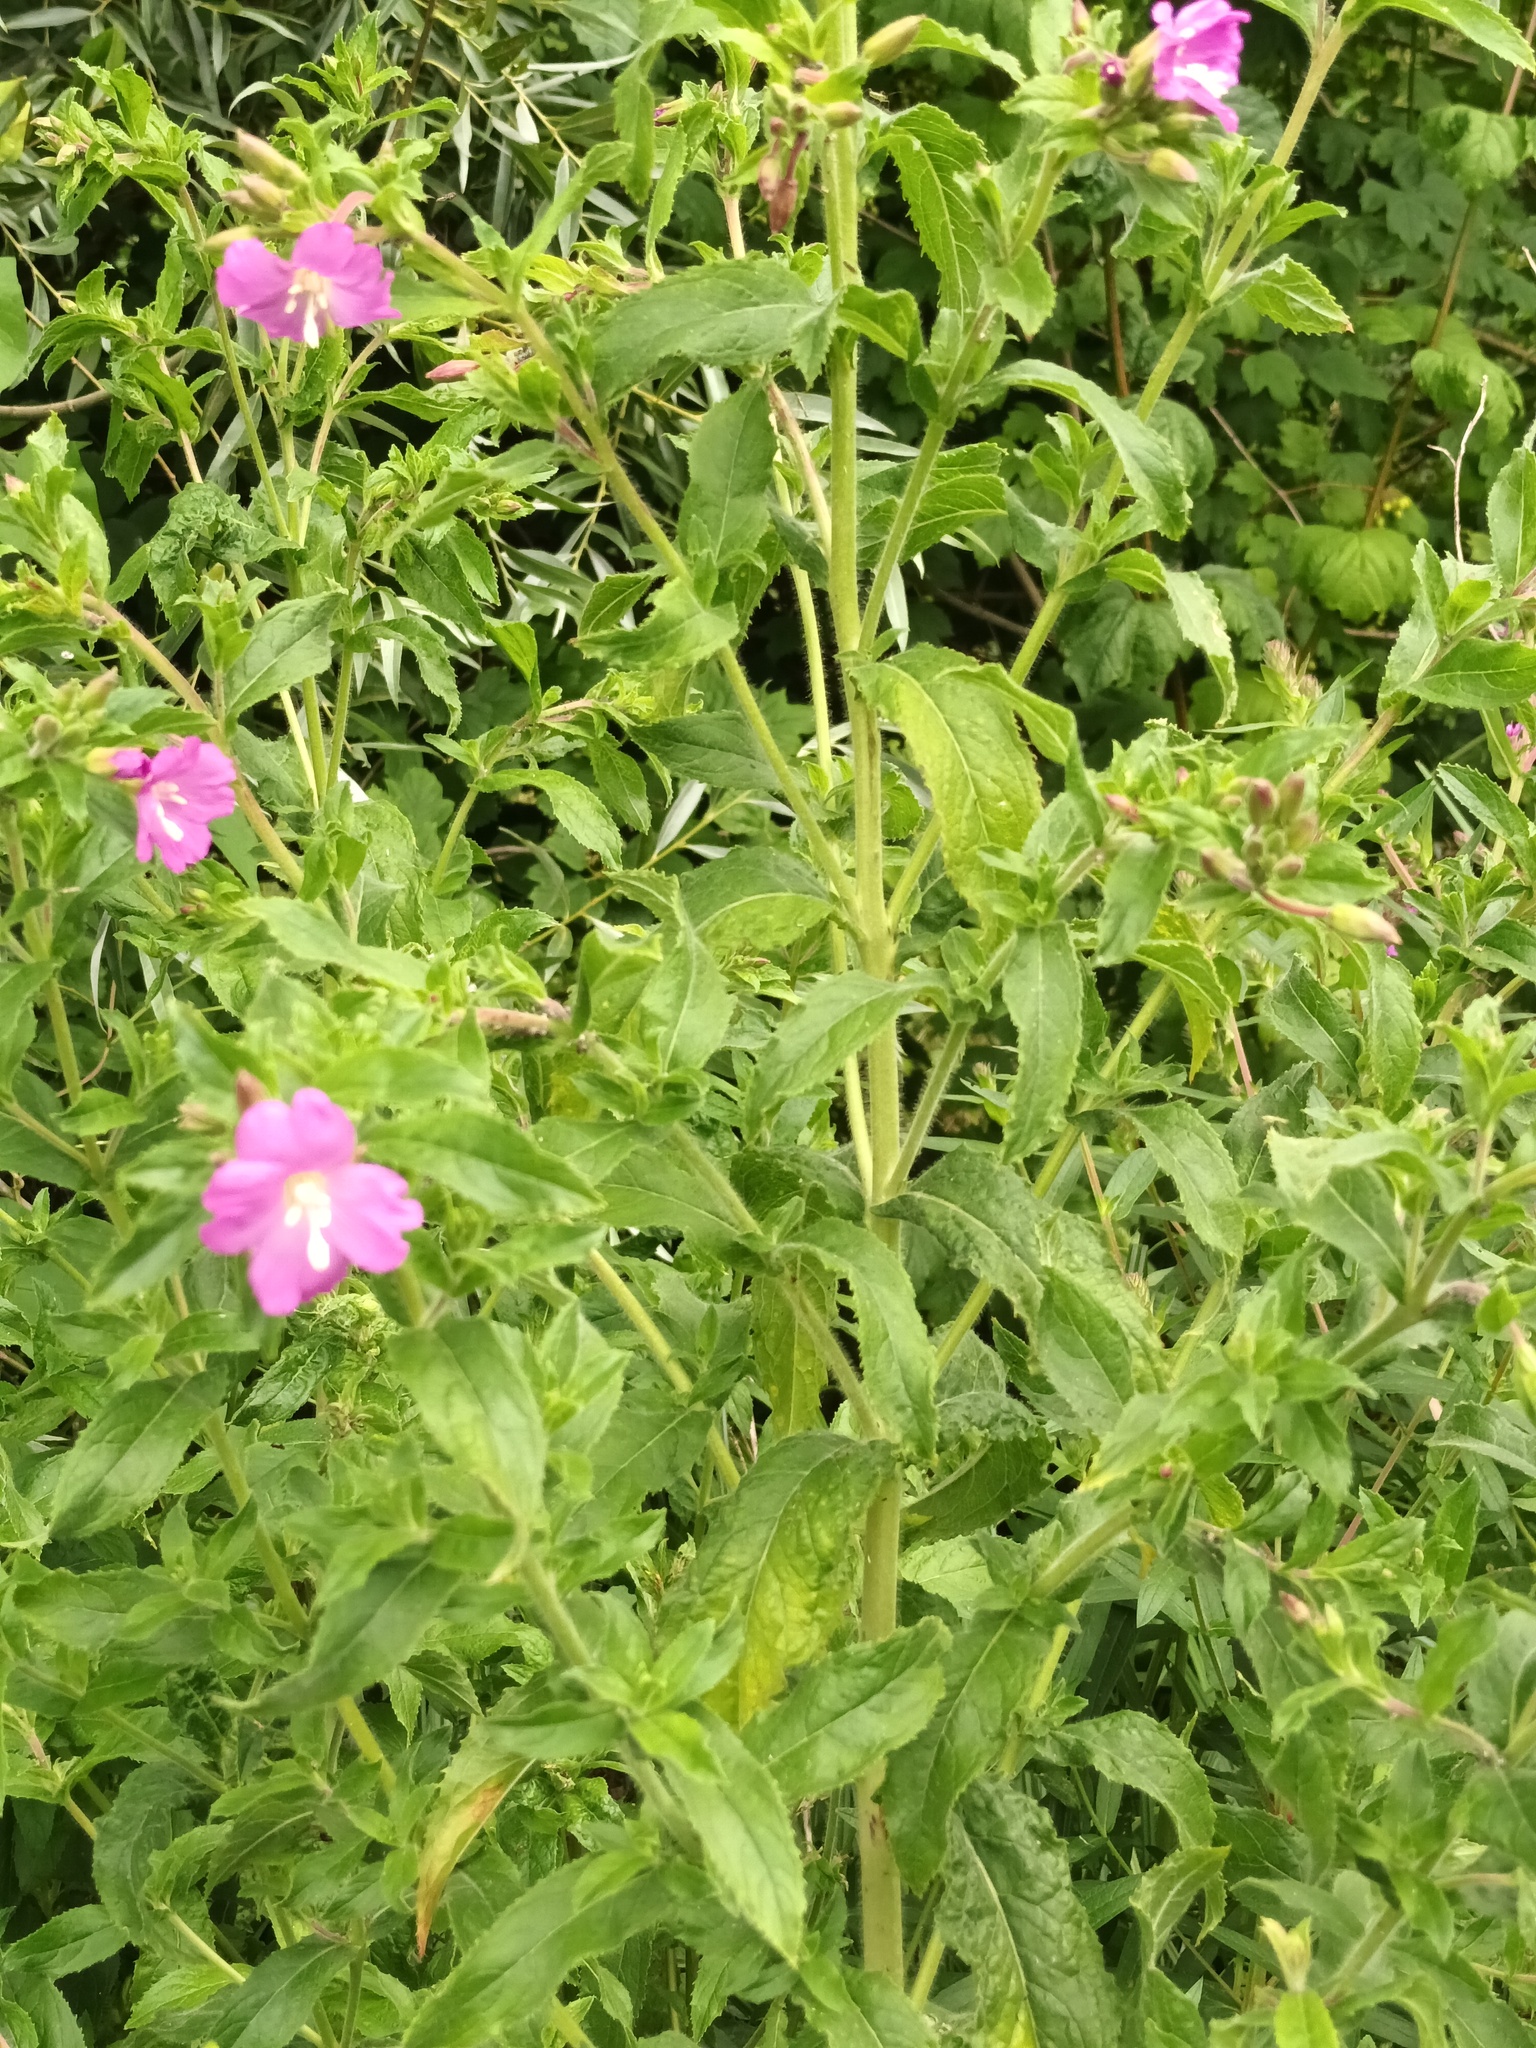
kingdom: Plantae
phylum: Tracheophyta
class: Magnoliopsida
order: Myrtales
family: Onagraceae
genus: Epilobium
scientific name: Epilobium hirsutum
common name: Great willowherb
